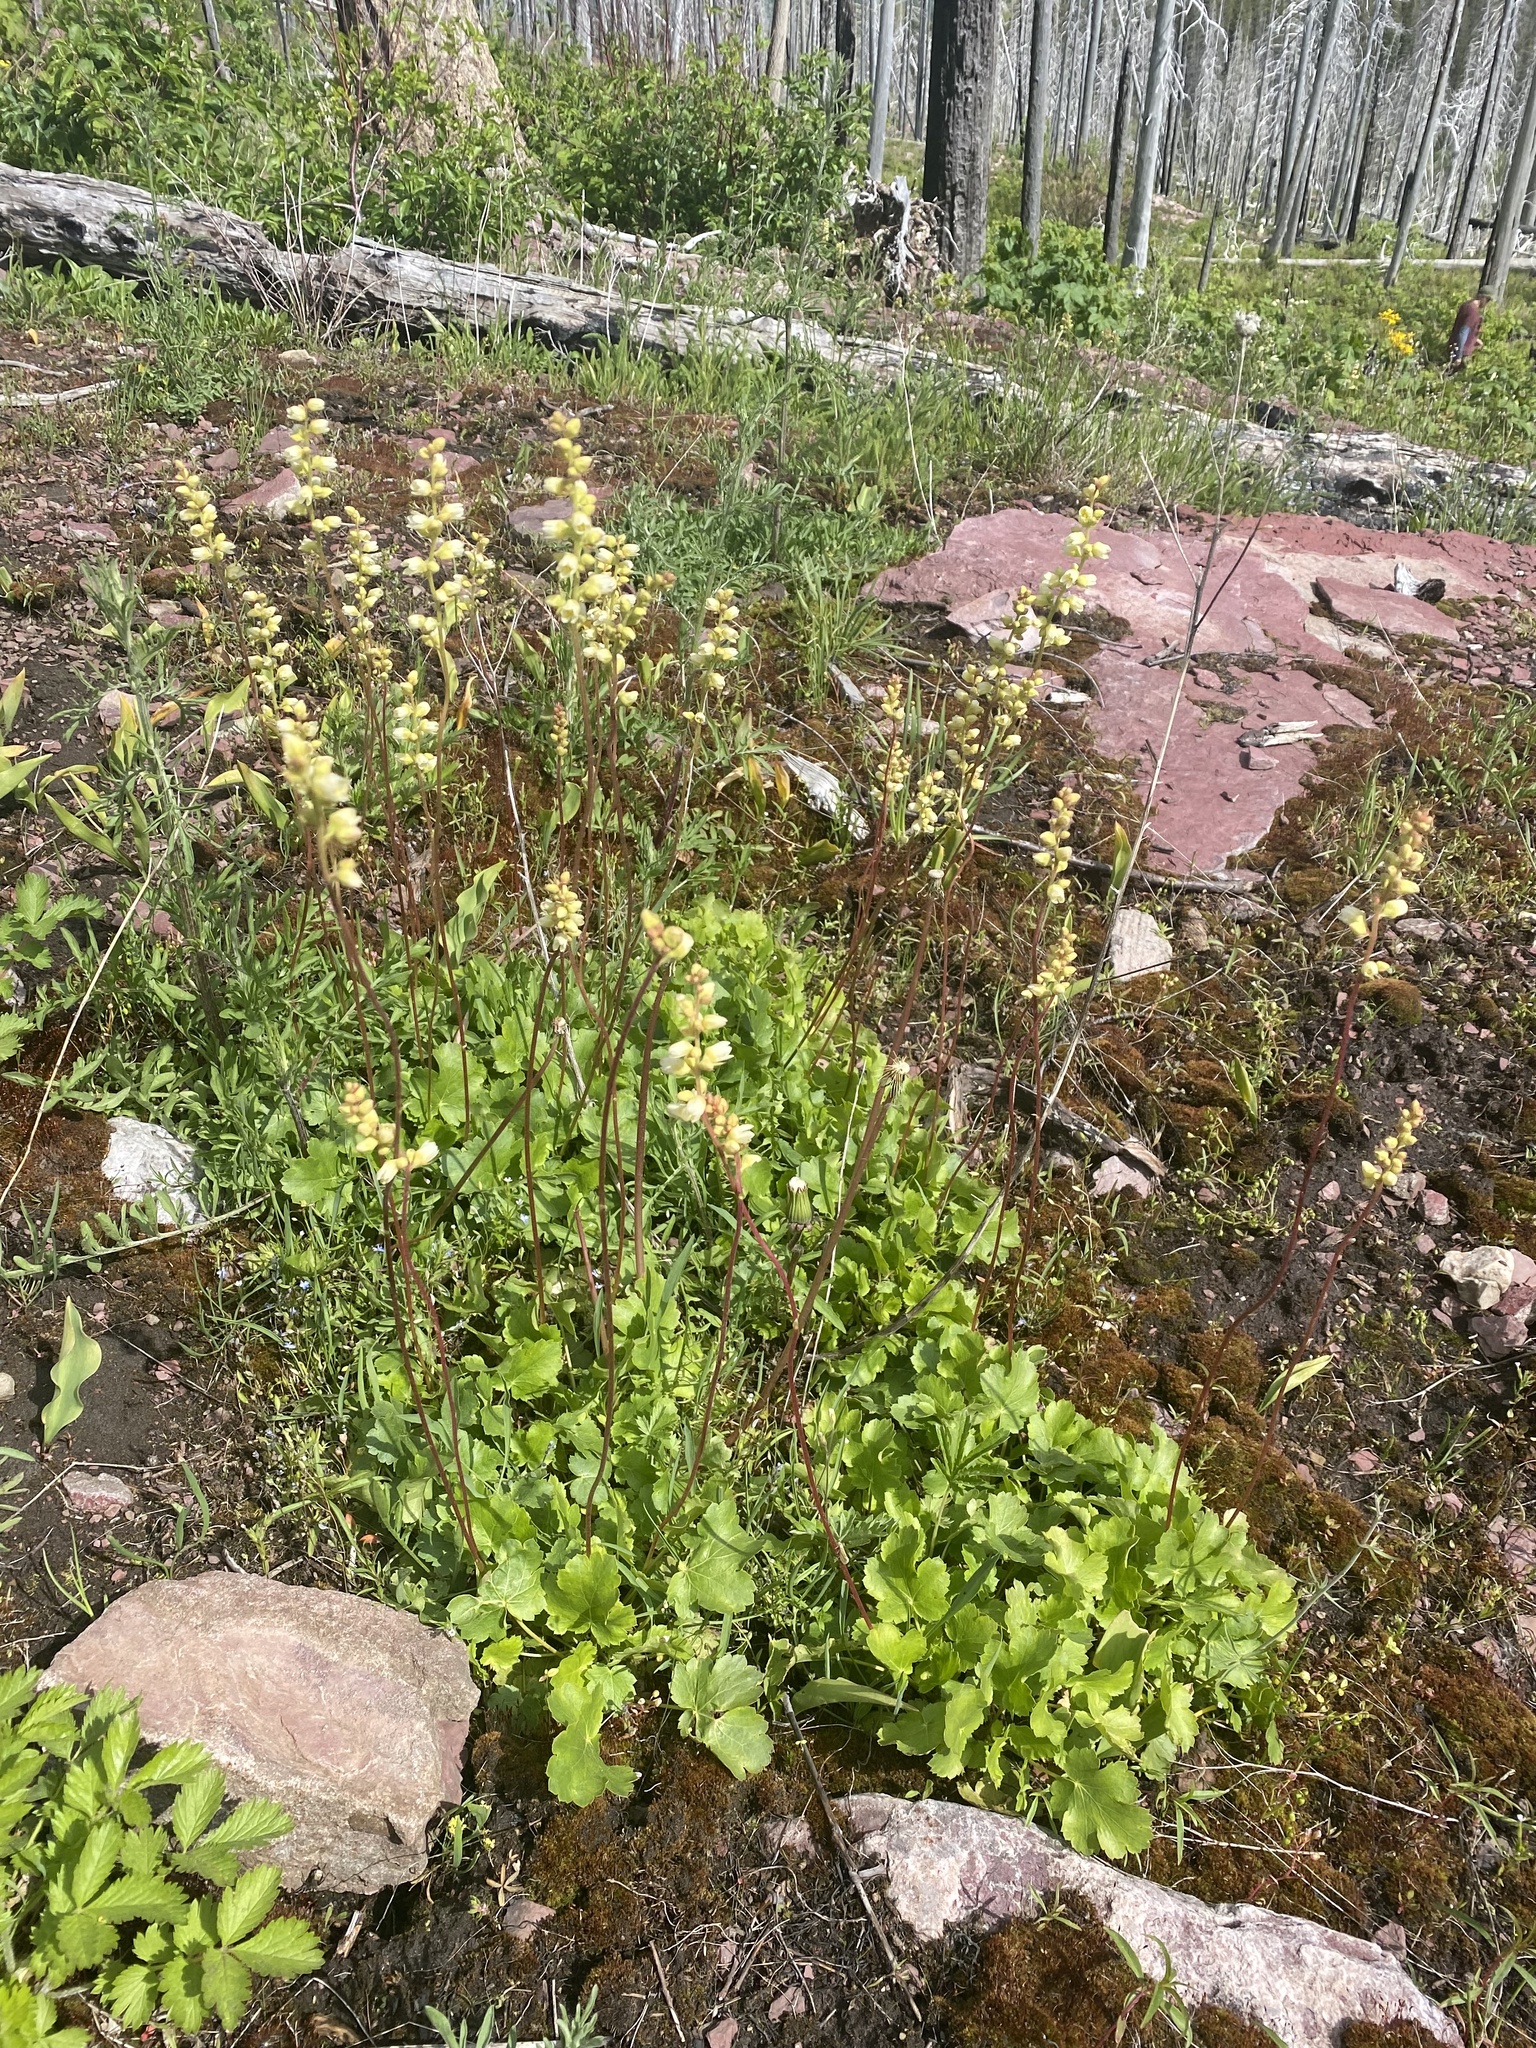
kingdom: Plantae
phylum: Tracheophyta
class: Magnoliopsida
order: Saxifragales
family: Saxifragaceae
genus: Heuchera
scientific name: Heuchera cylindrica
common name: Mat alumroot
